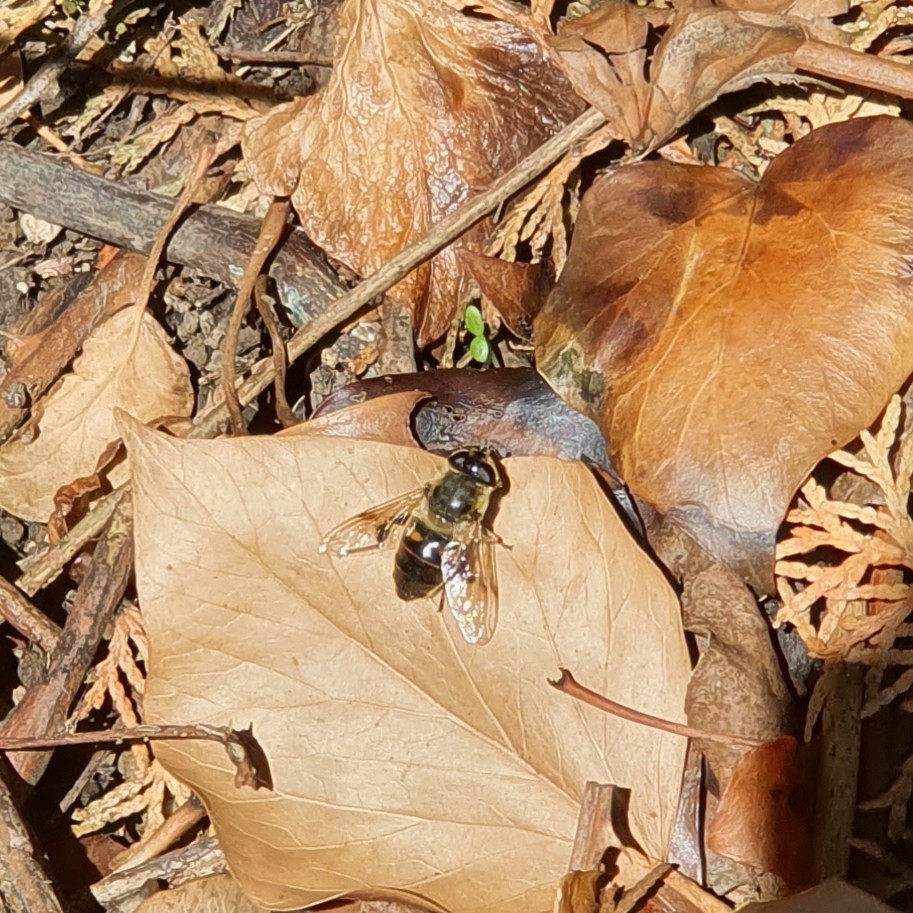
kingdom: Animalia
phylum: Arthropoda
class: Insecta
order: Diptera
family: Syrphidae
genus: Eristalis
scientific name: Eristalis tenax
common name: Drone fly
